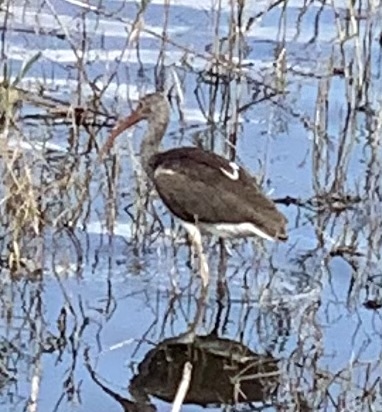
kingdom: Animalia
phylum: Chordata
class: Aves
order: Pelecaniformes
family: Threskiornithidae
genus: Eudocimus
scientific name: Eudocimus albus
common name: White ibis
